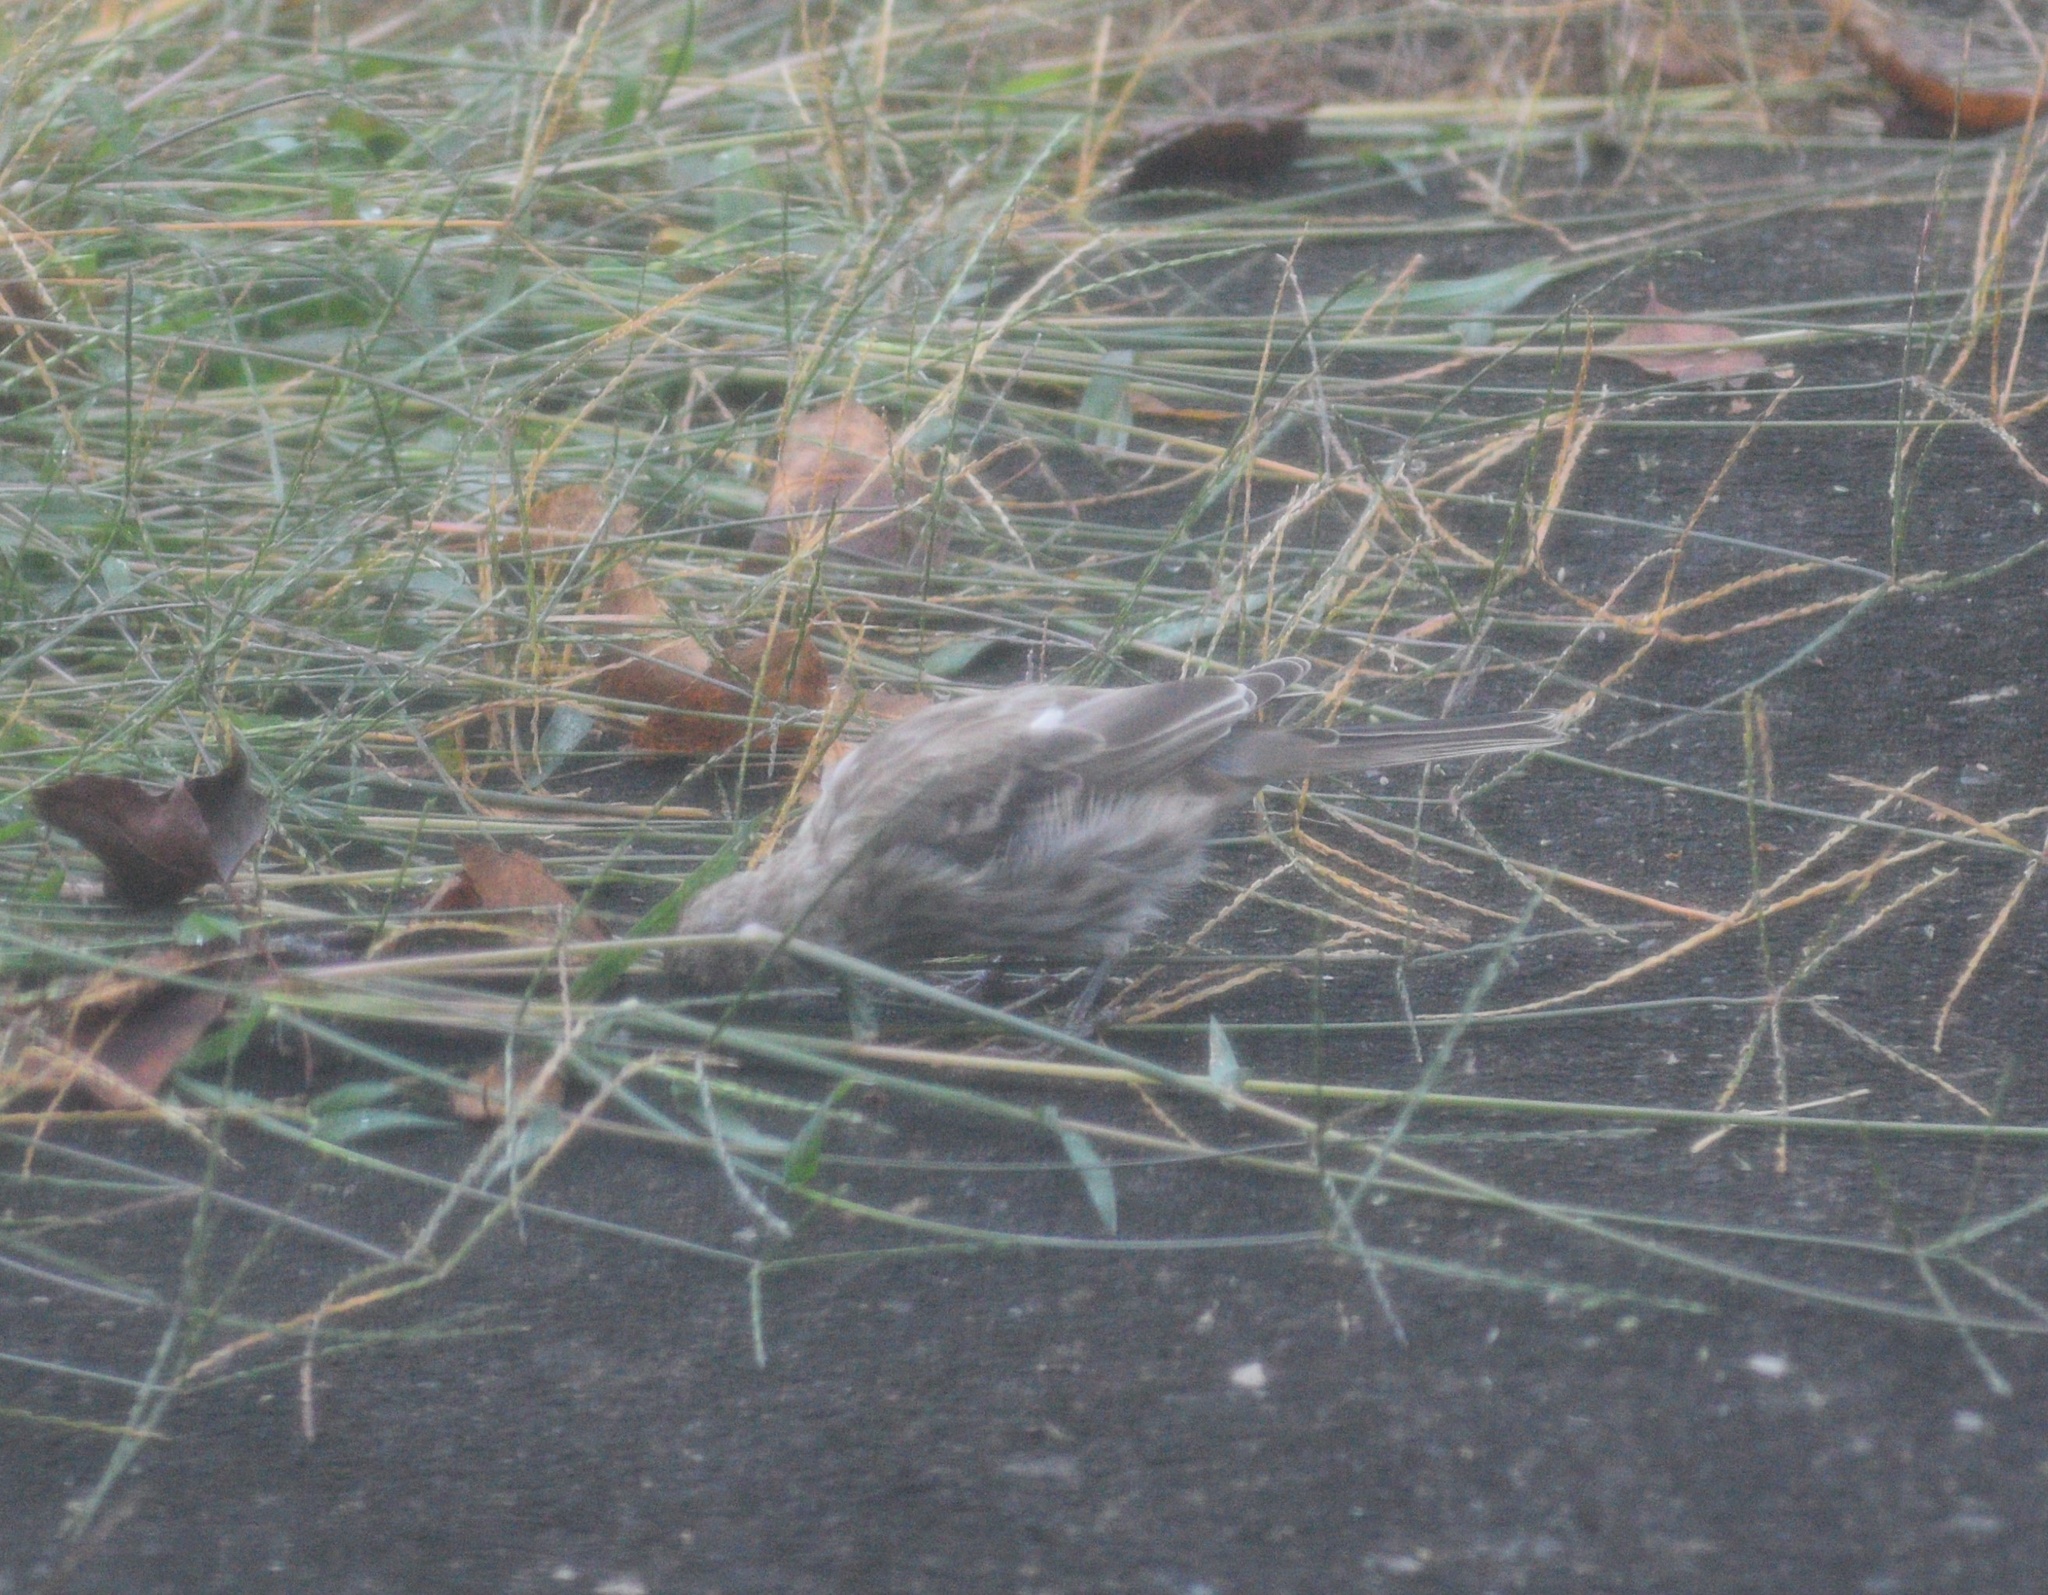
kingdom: Animalia
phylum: Chordata
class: Aves
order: Passeriformes
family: Fringillidae
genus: Haemorhous
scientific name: Haemorhous mexicanus
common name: House finch
